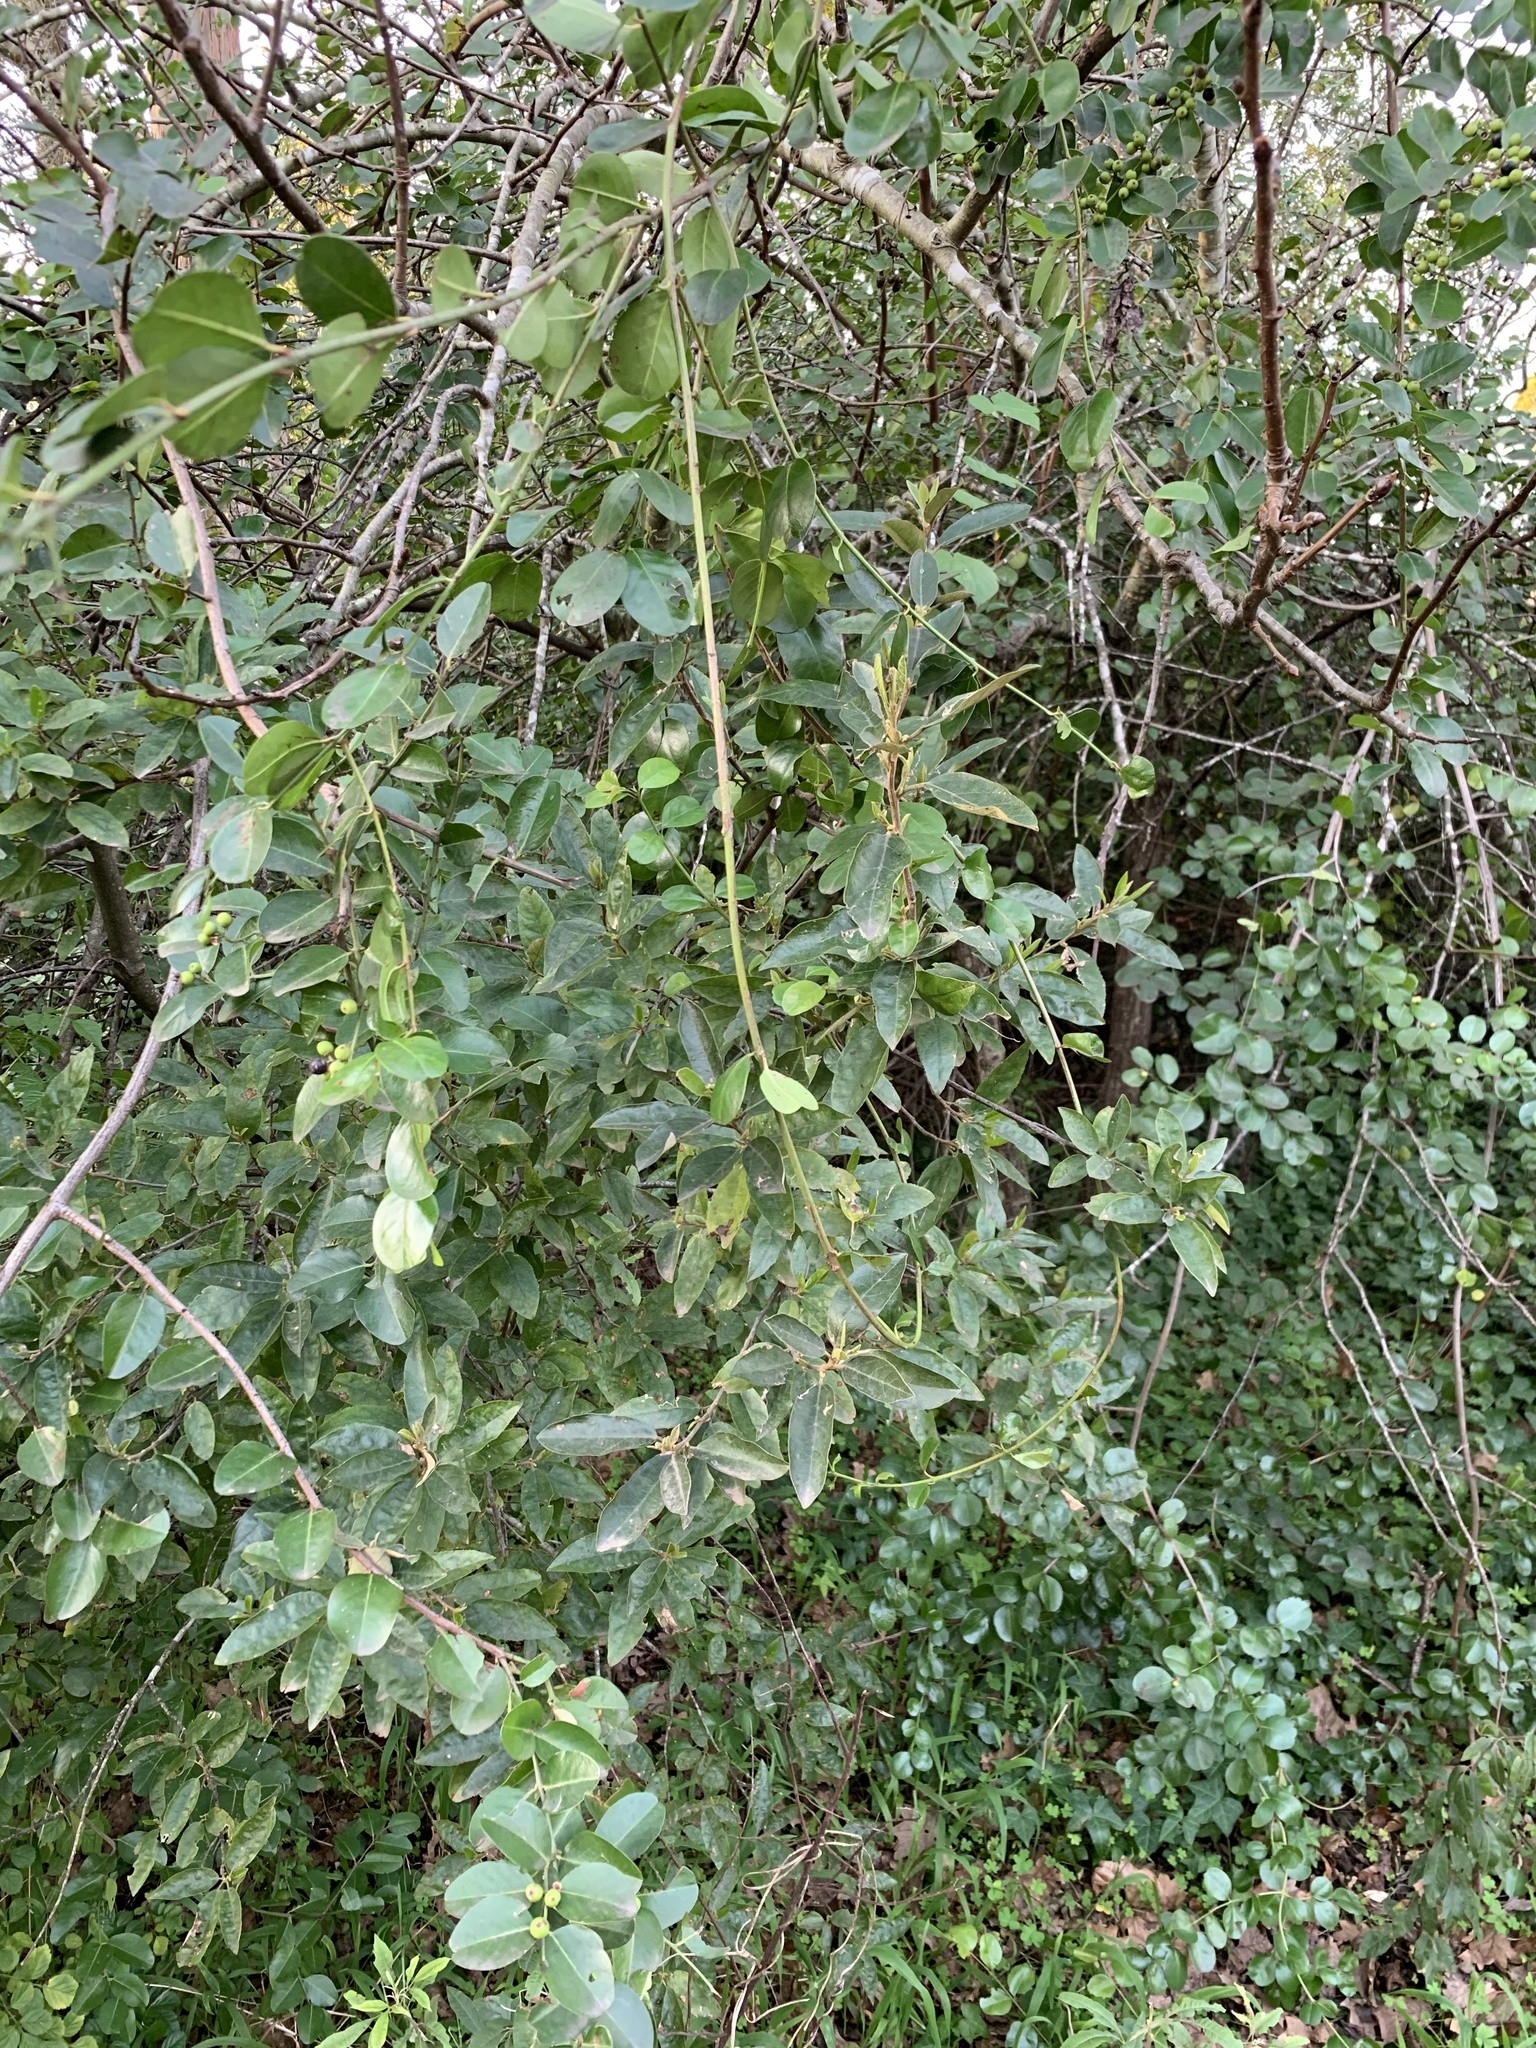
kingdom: Plantae
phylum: Tracheophyta
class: Magnoliopsida
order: Rosales
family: Rhamnaceae
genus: Scutia
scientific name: Scutia myrtina
